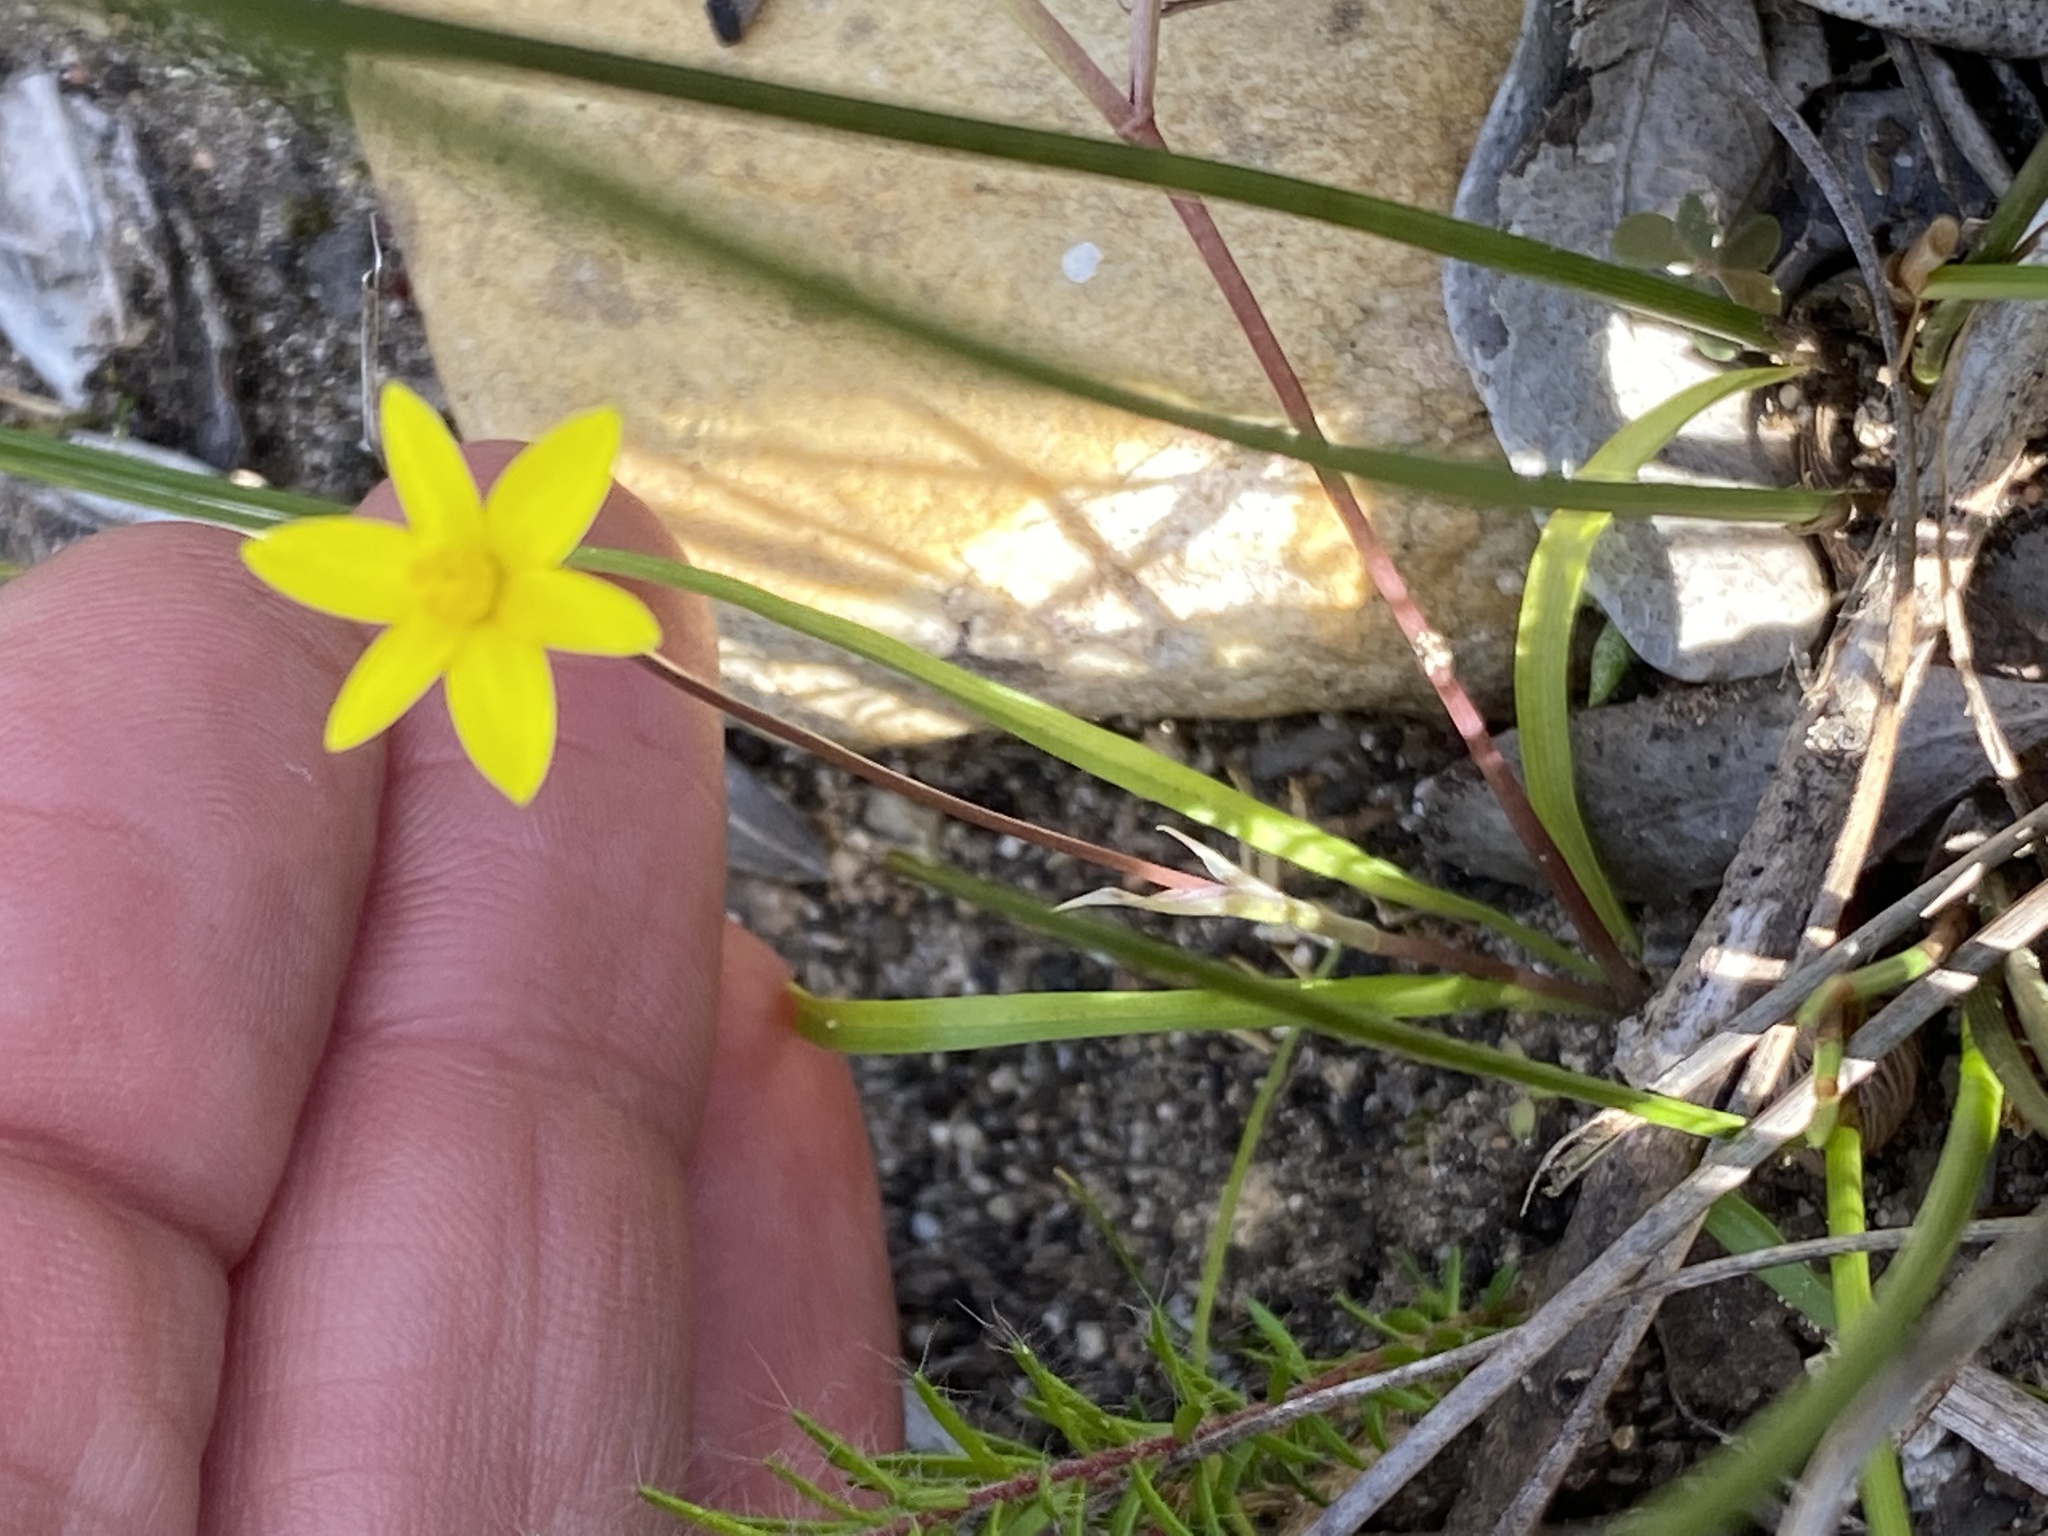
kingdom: Plantae
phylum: Tracheophyta
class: Liliopsida
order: Asparagales
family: Hypoxidaceae
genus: Pauridia
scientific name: Pauridia flaccida
